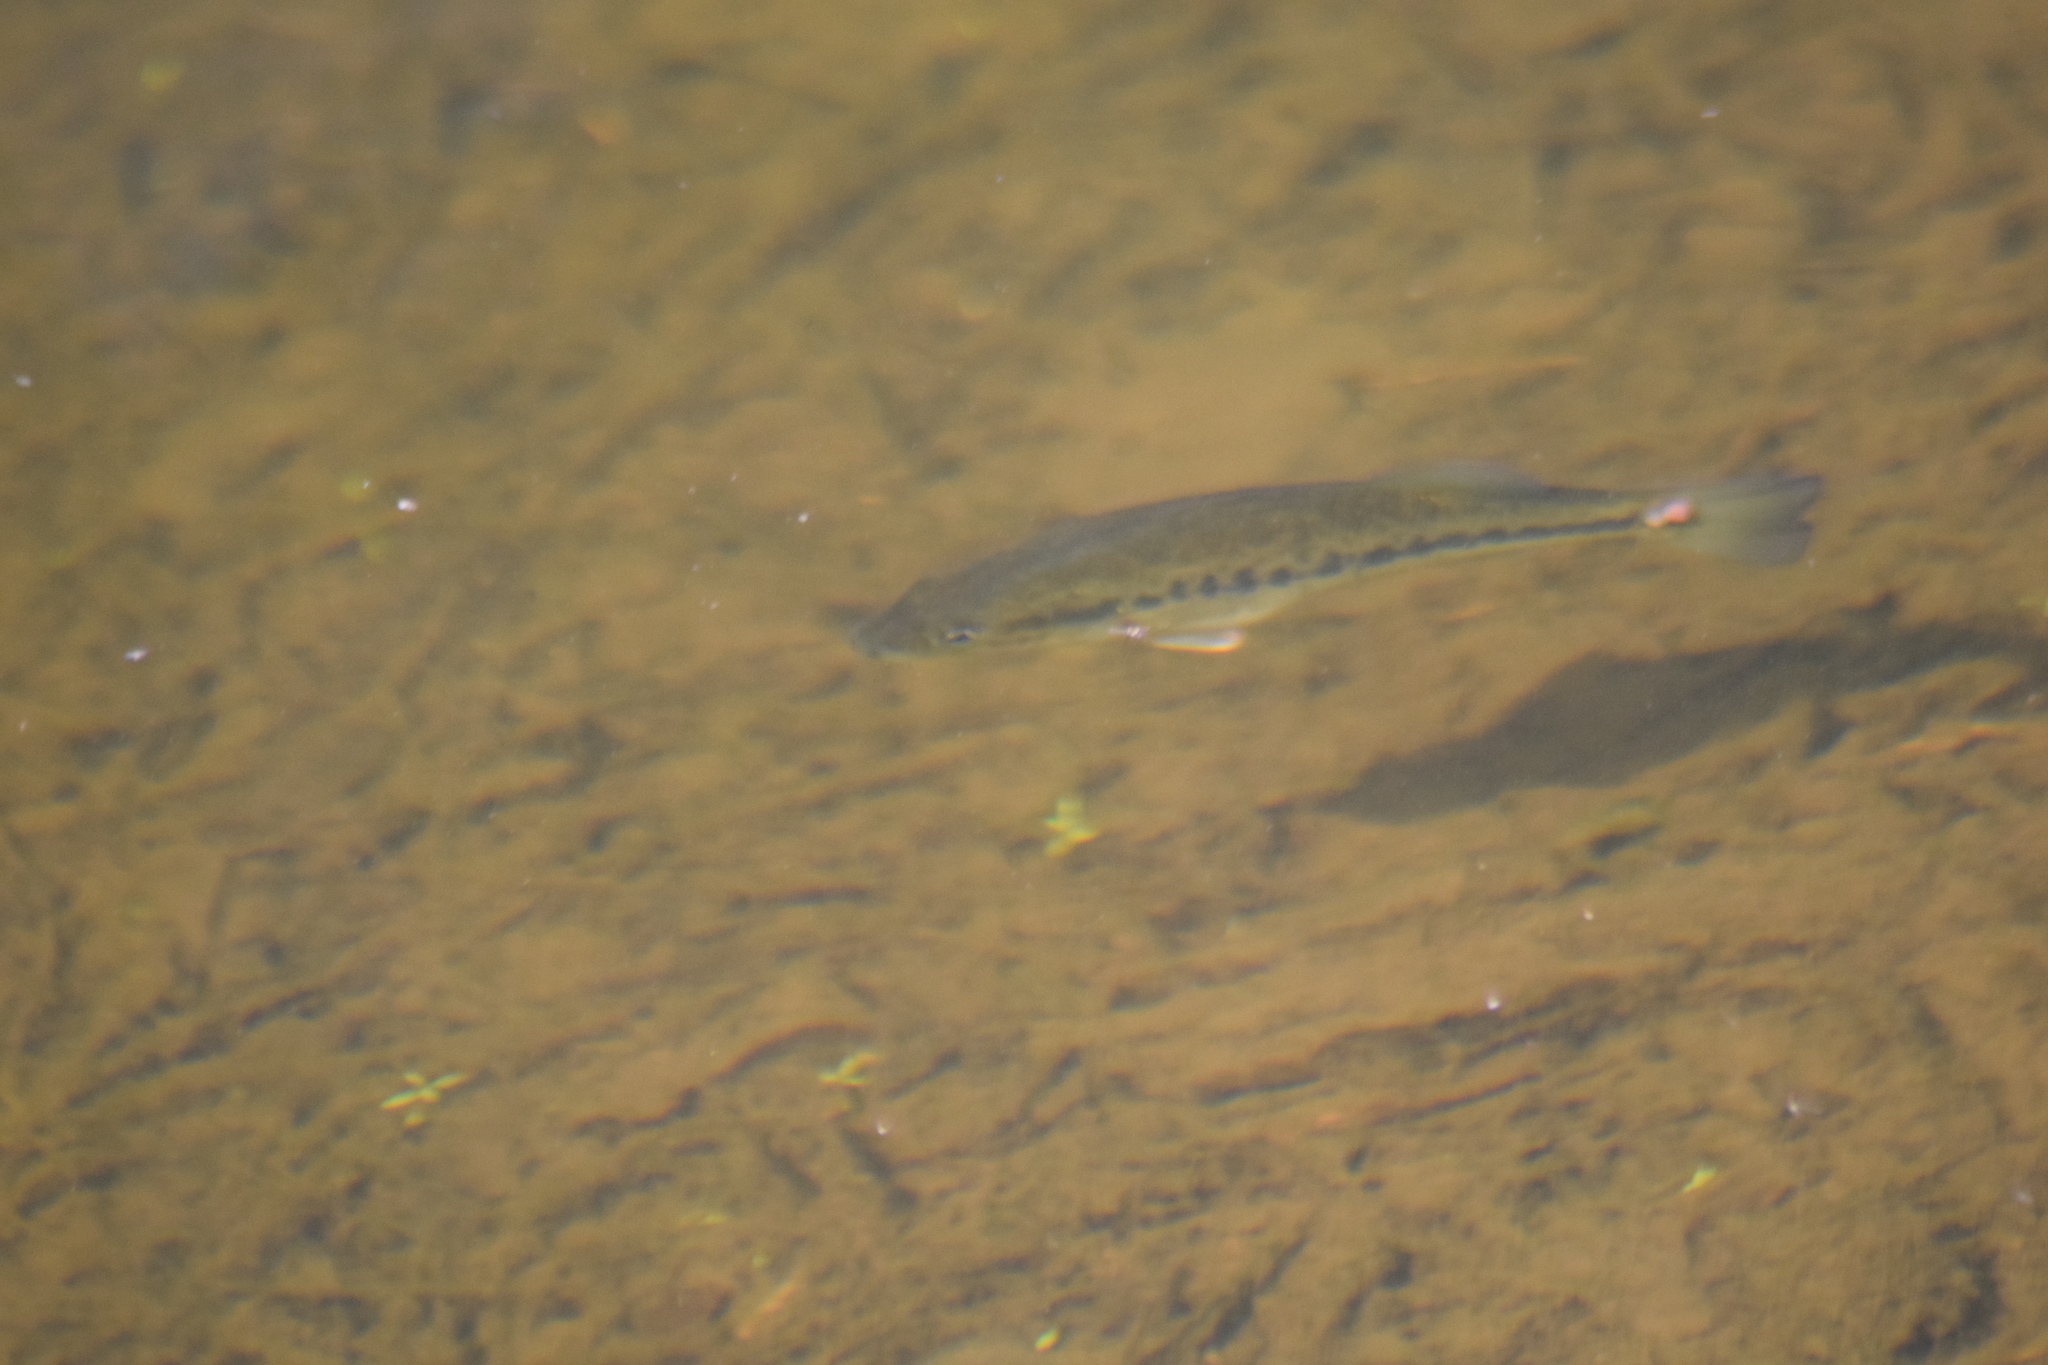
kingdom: Animalia
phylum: Chordata
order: Perciformes
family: Centrarchidae
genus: Micropterus
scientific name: Micropterus
